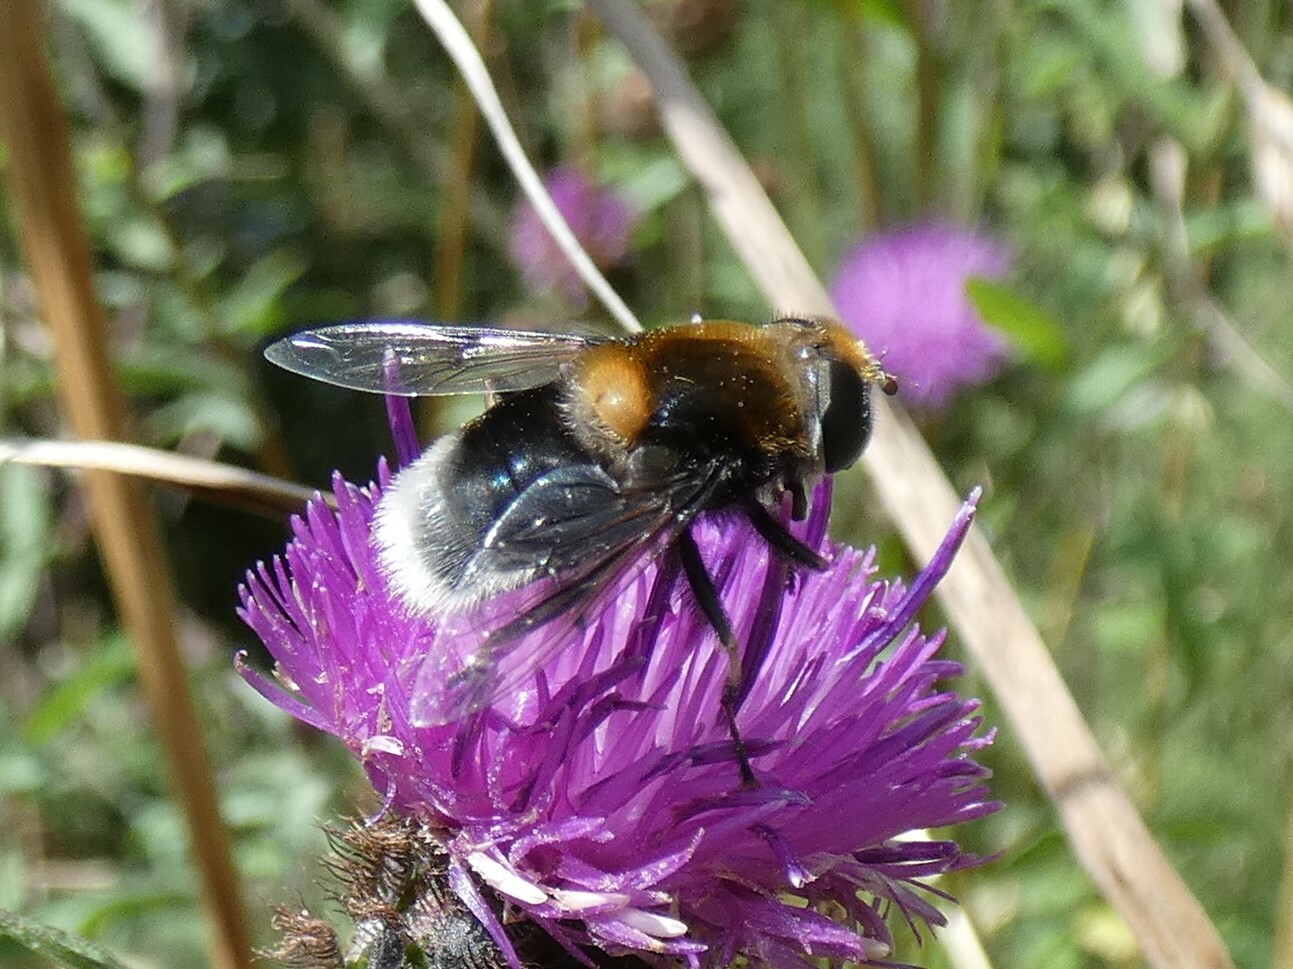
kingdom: Animalia
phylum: Arthropoda
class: Insecta
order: Diptera
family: Syrphidae
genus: Eristalis
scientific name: Eristalis intricaria
